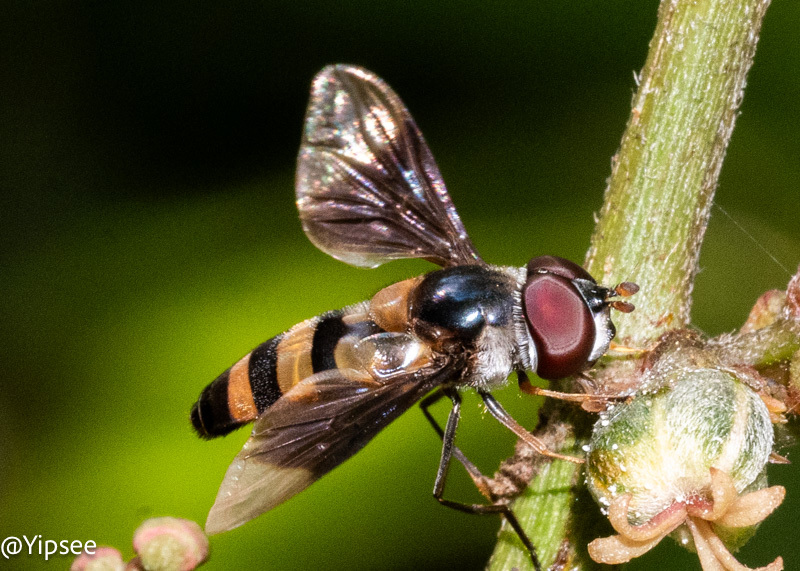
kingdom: Animalia
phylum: Arthropoda
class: Insecta
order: Diptera
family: Syrphidae
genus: Dideopsis
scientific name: Dideopsis aegrota
